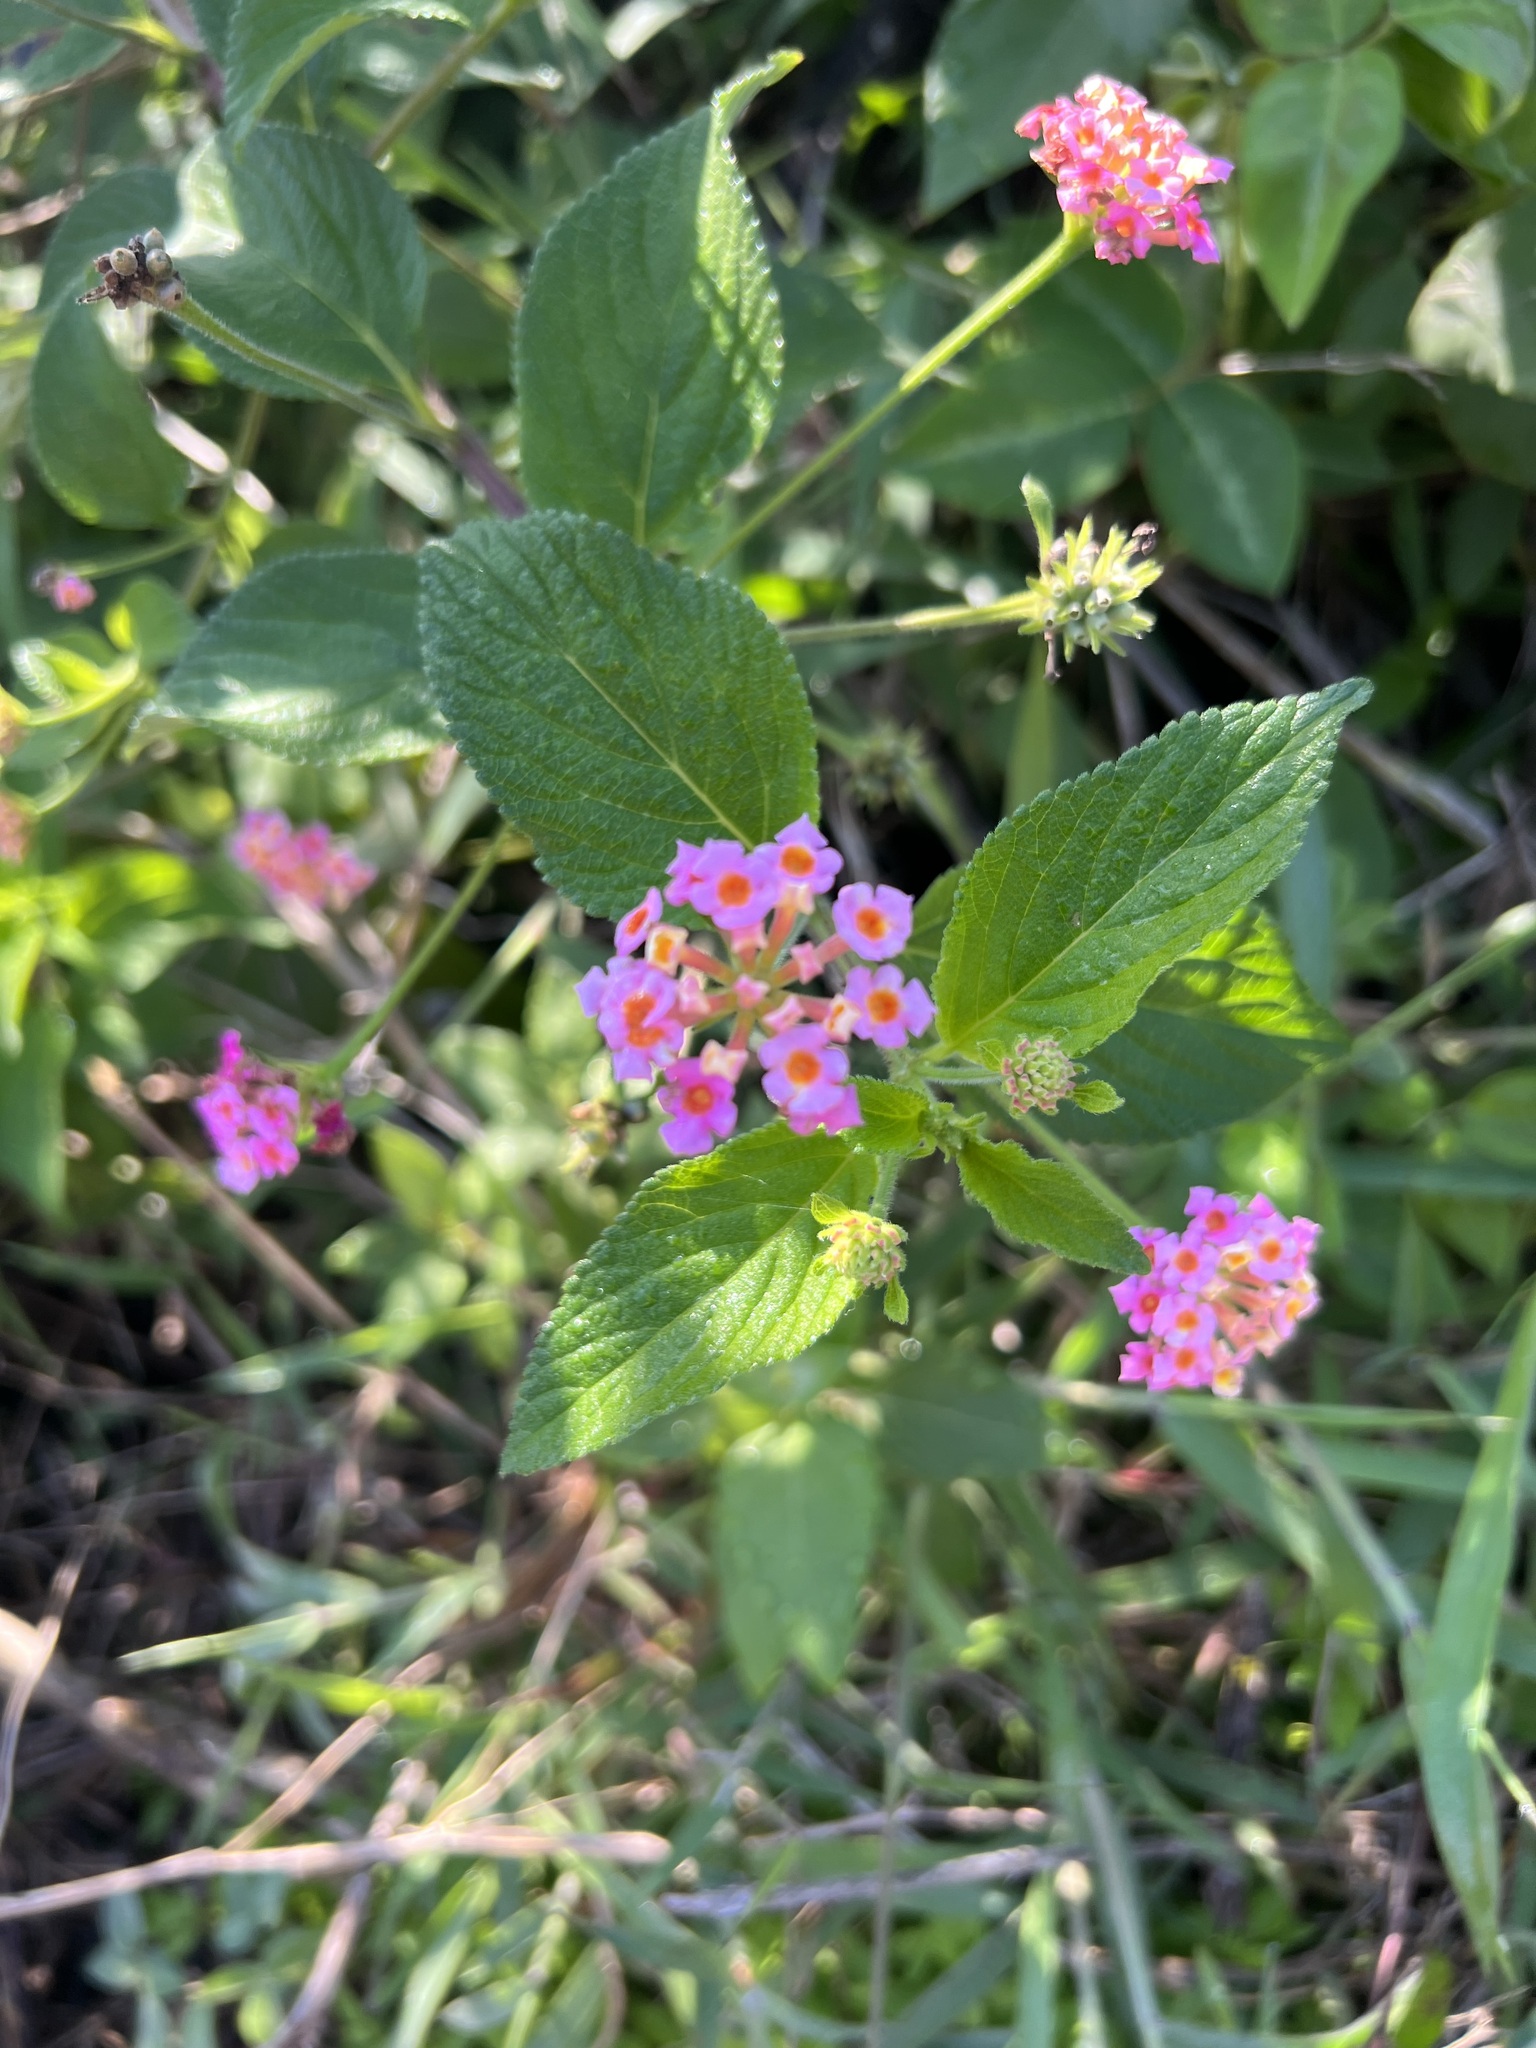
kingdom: Plantae
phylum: Tracheophyta
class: Magnoliopsida
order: Lamiales
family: Verbenaceae
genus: Lantana
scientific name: Lantana camara
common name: Lantana
